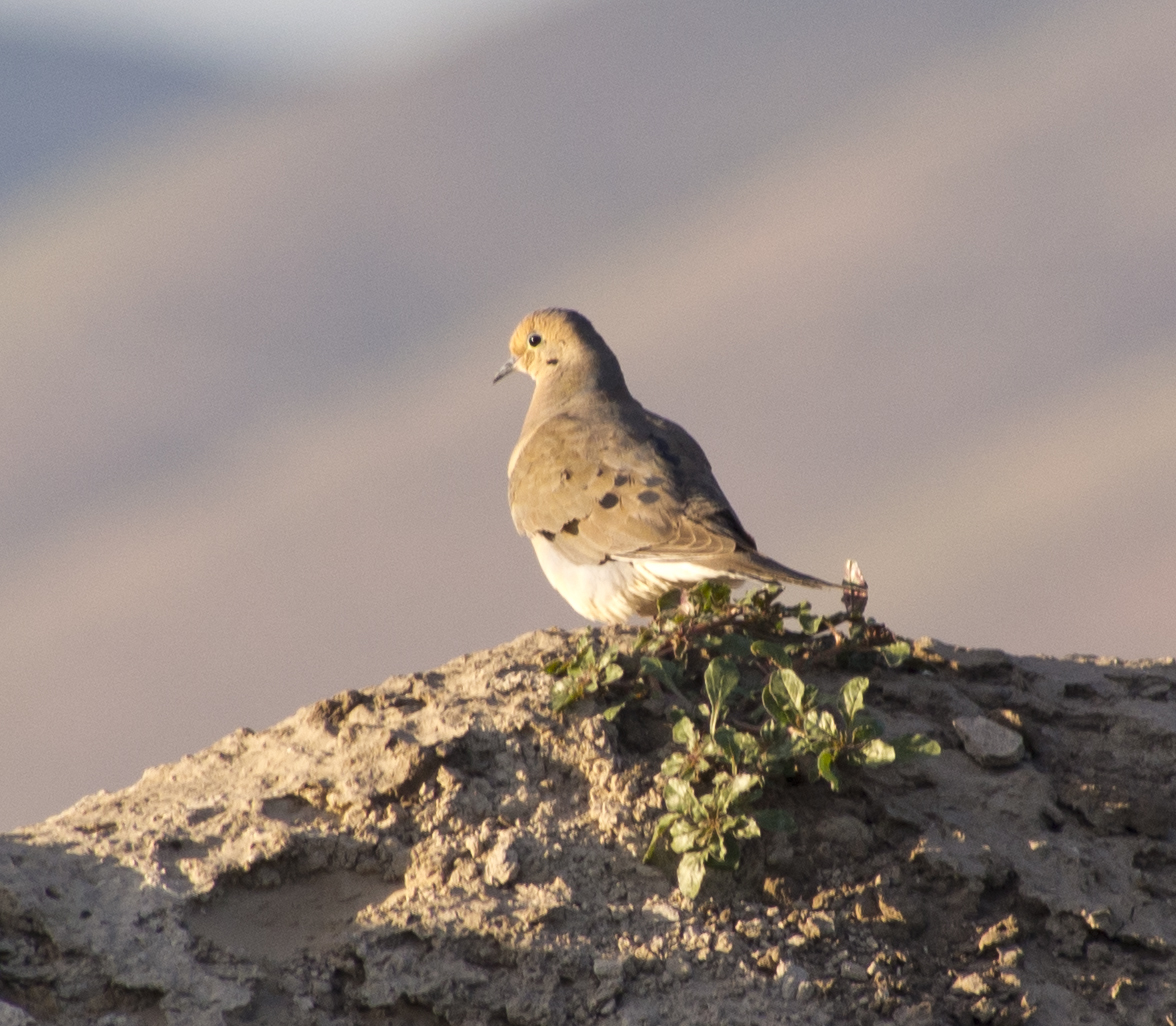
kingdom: Animalia
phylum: Chordata
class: Aves
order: Columbiformes
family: Columbidae
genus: Zenaida
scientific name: Zenaida macroura
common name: Mourning dove
